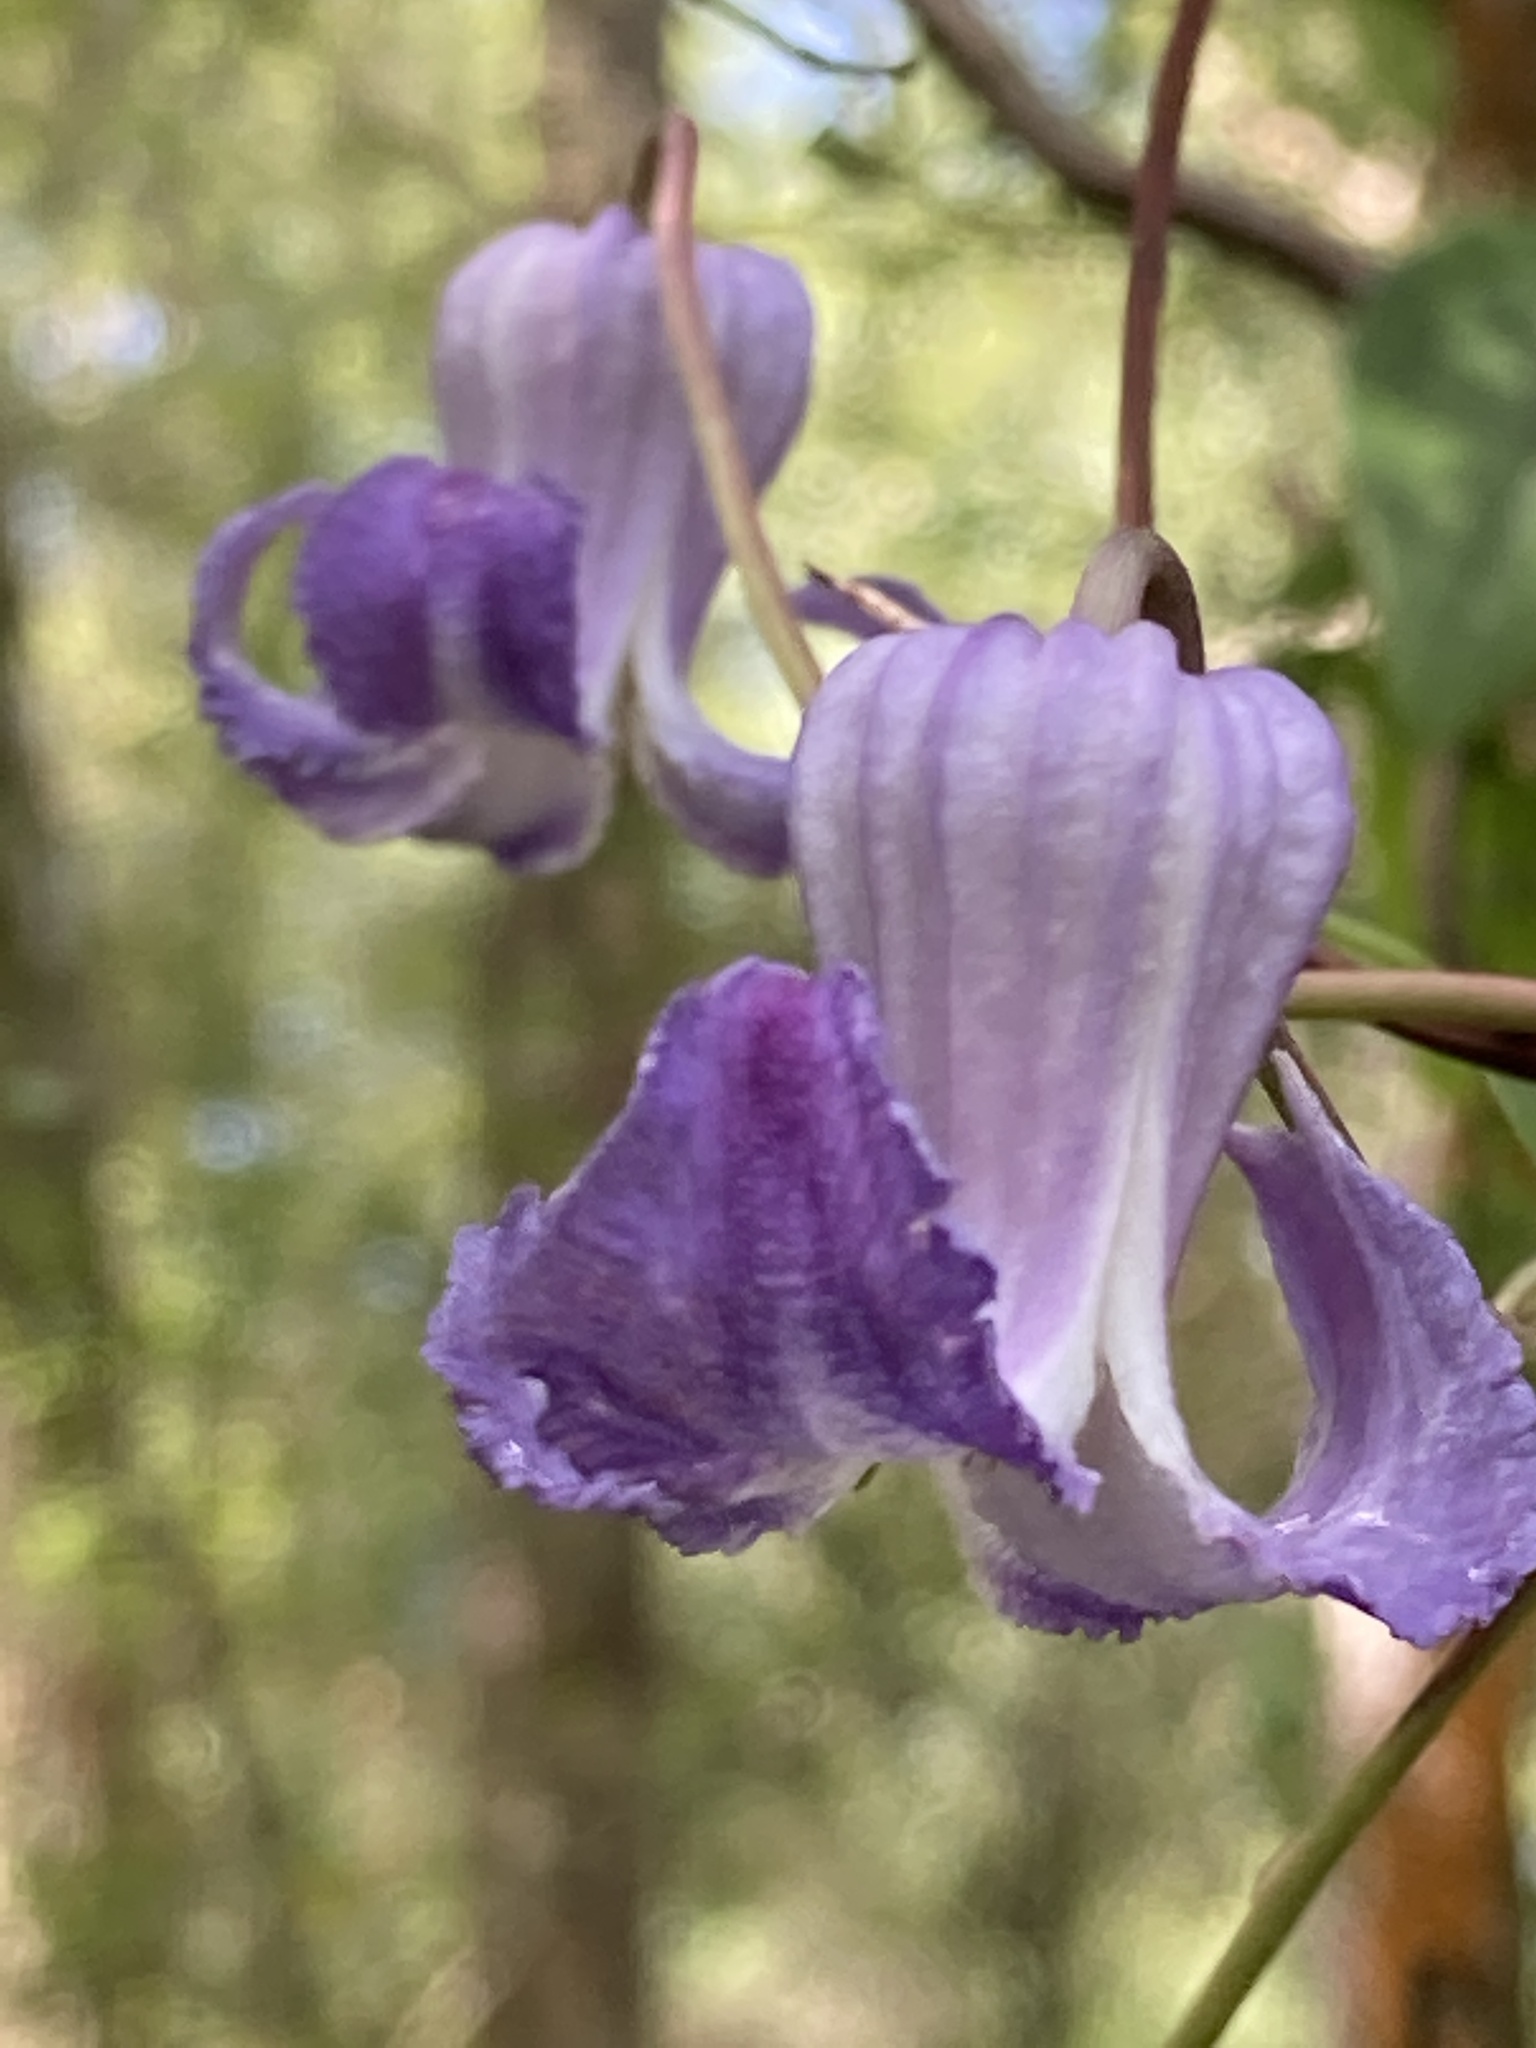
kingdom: Plantae
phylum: Tracheophyta
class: Magnoliopsida
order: Ranunculales
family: Ranunculaceae
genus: Clematis
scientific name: Clematis crispa
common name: Curly clematis
